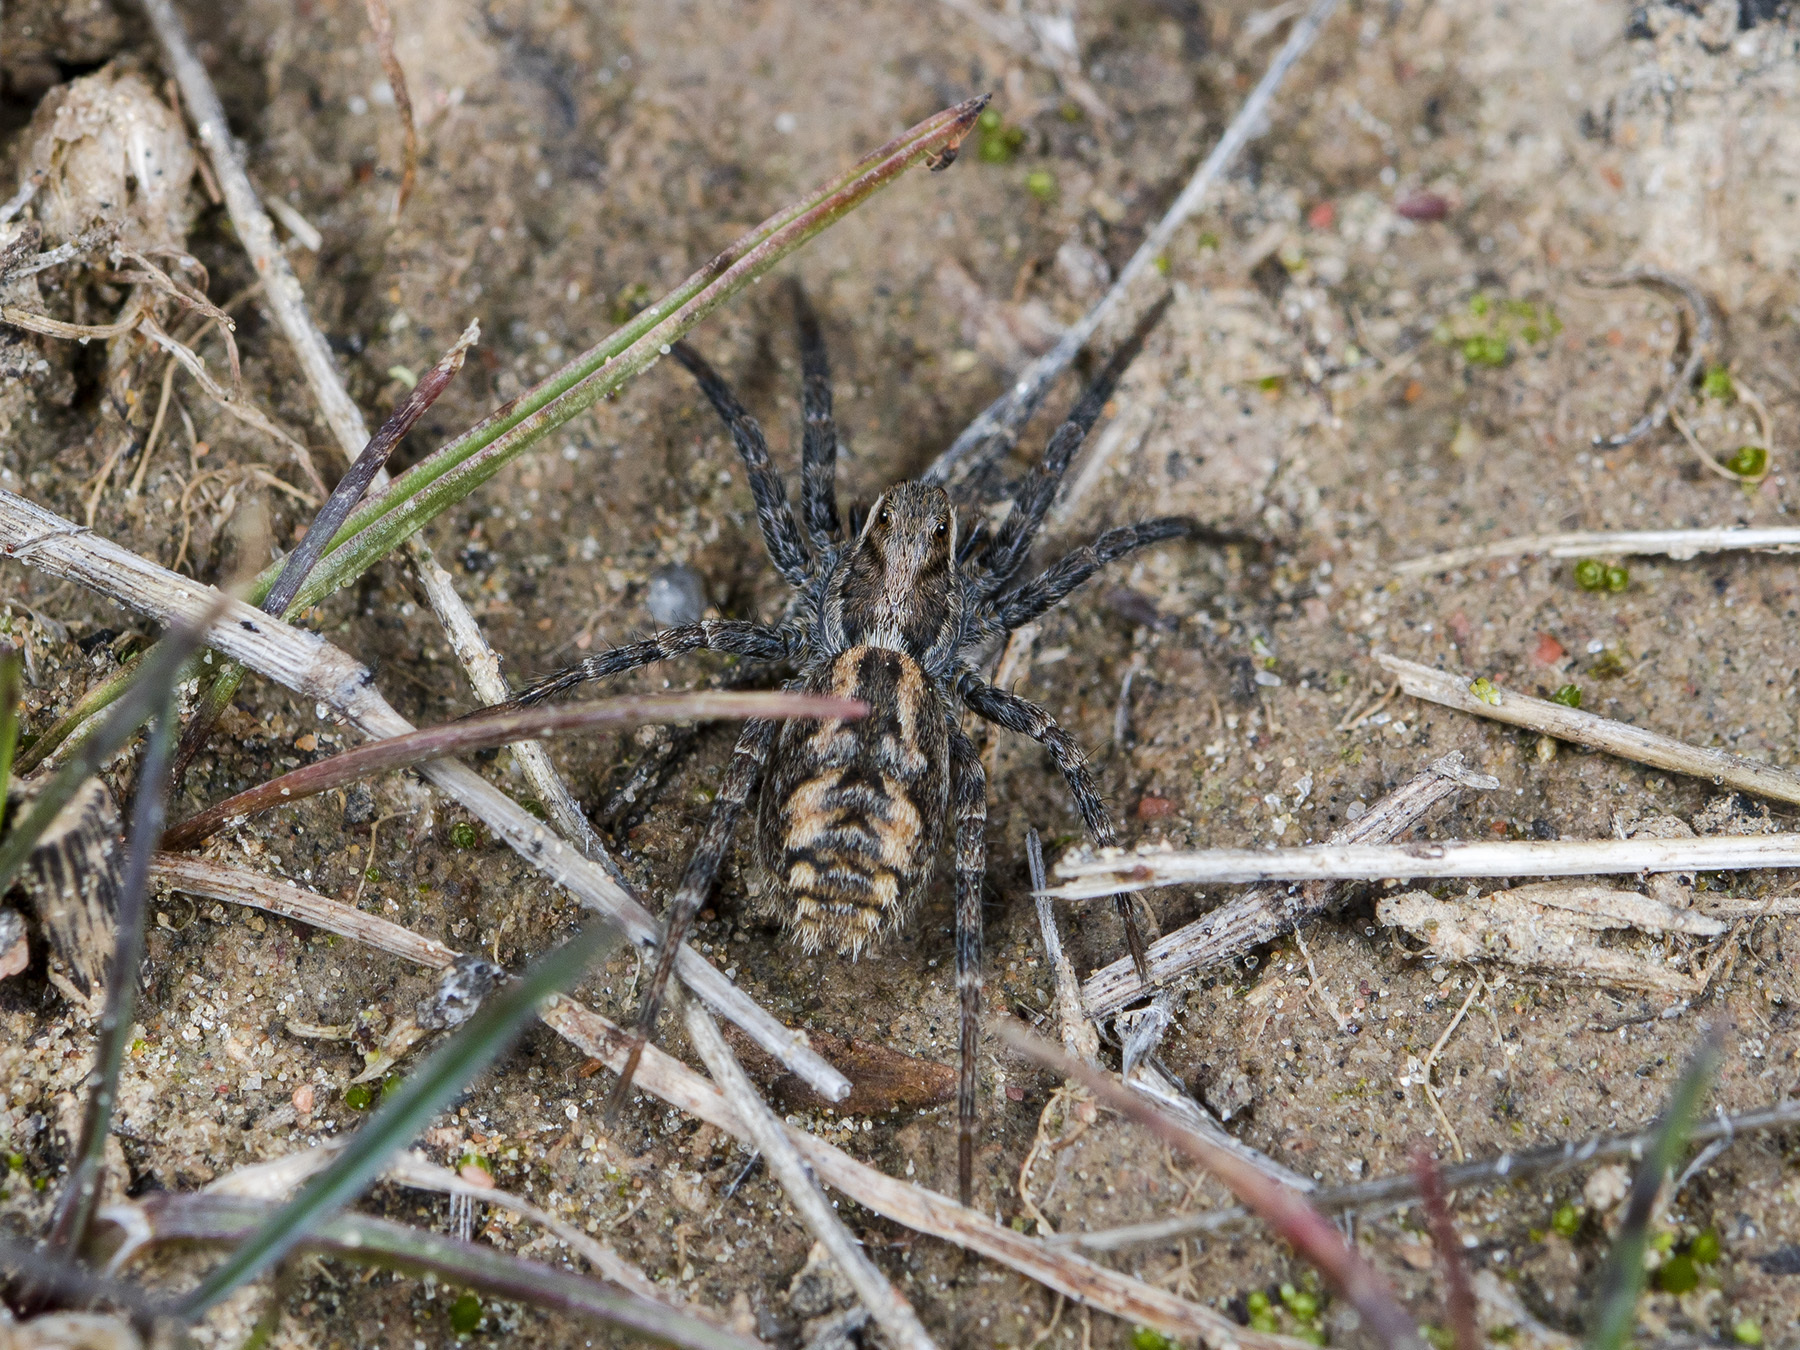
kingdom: Animalia
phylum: Arthropoda
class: Arachnida
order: Araneae
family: Lycosidae
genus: Lycosa
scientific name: Lycosa praegrandis
